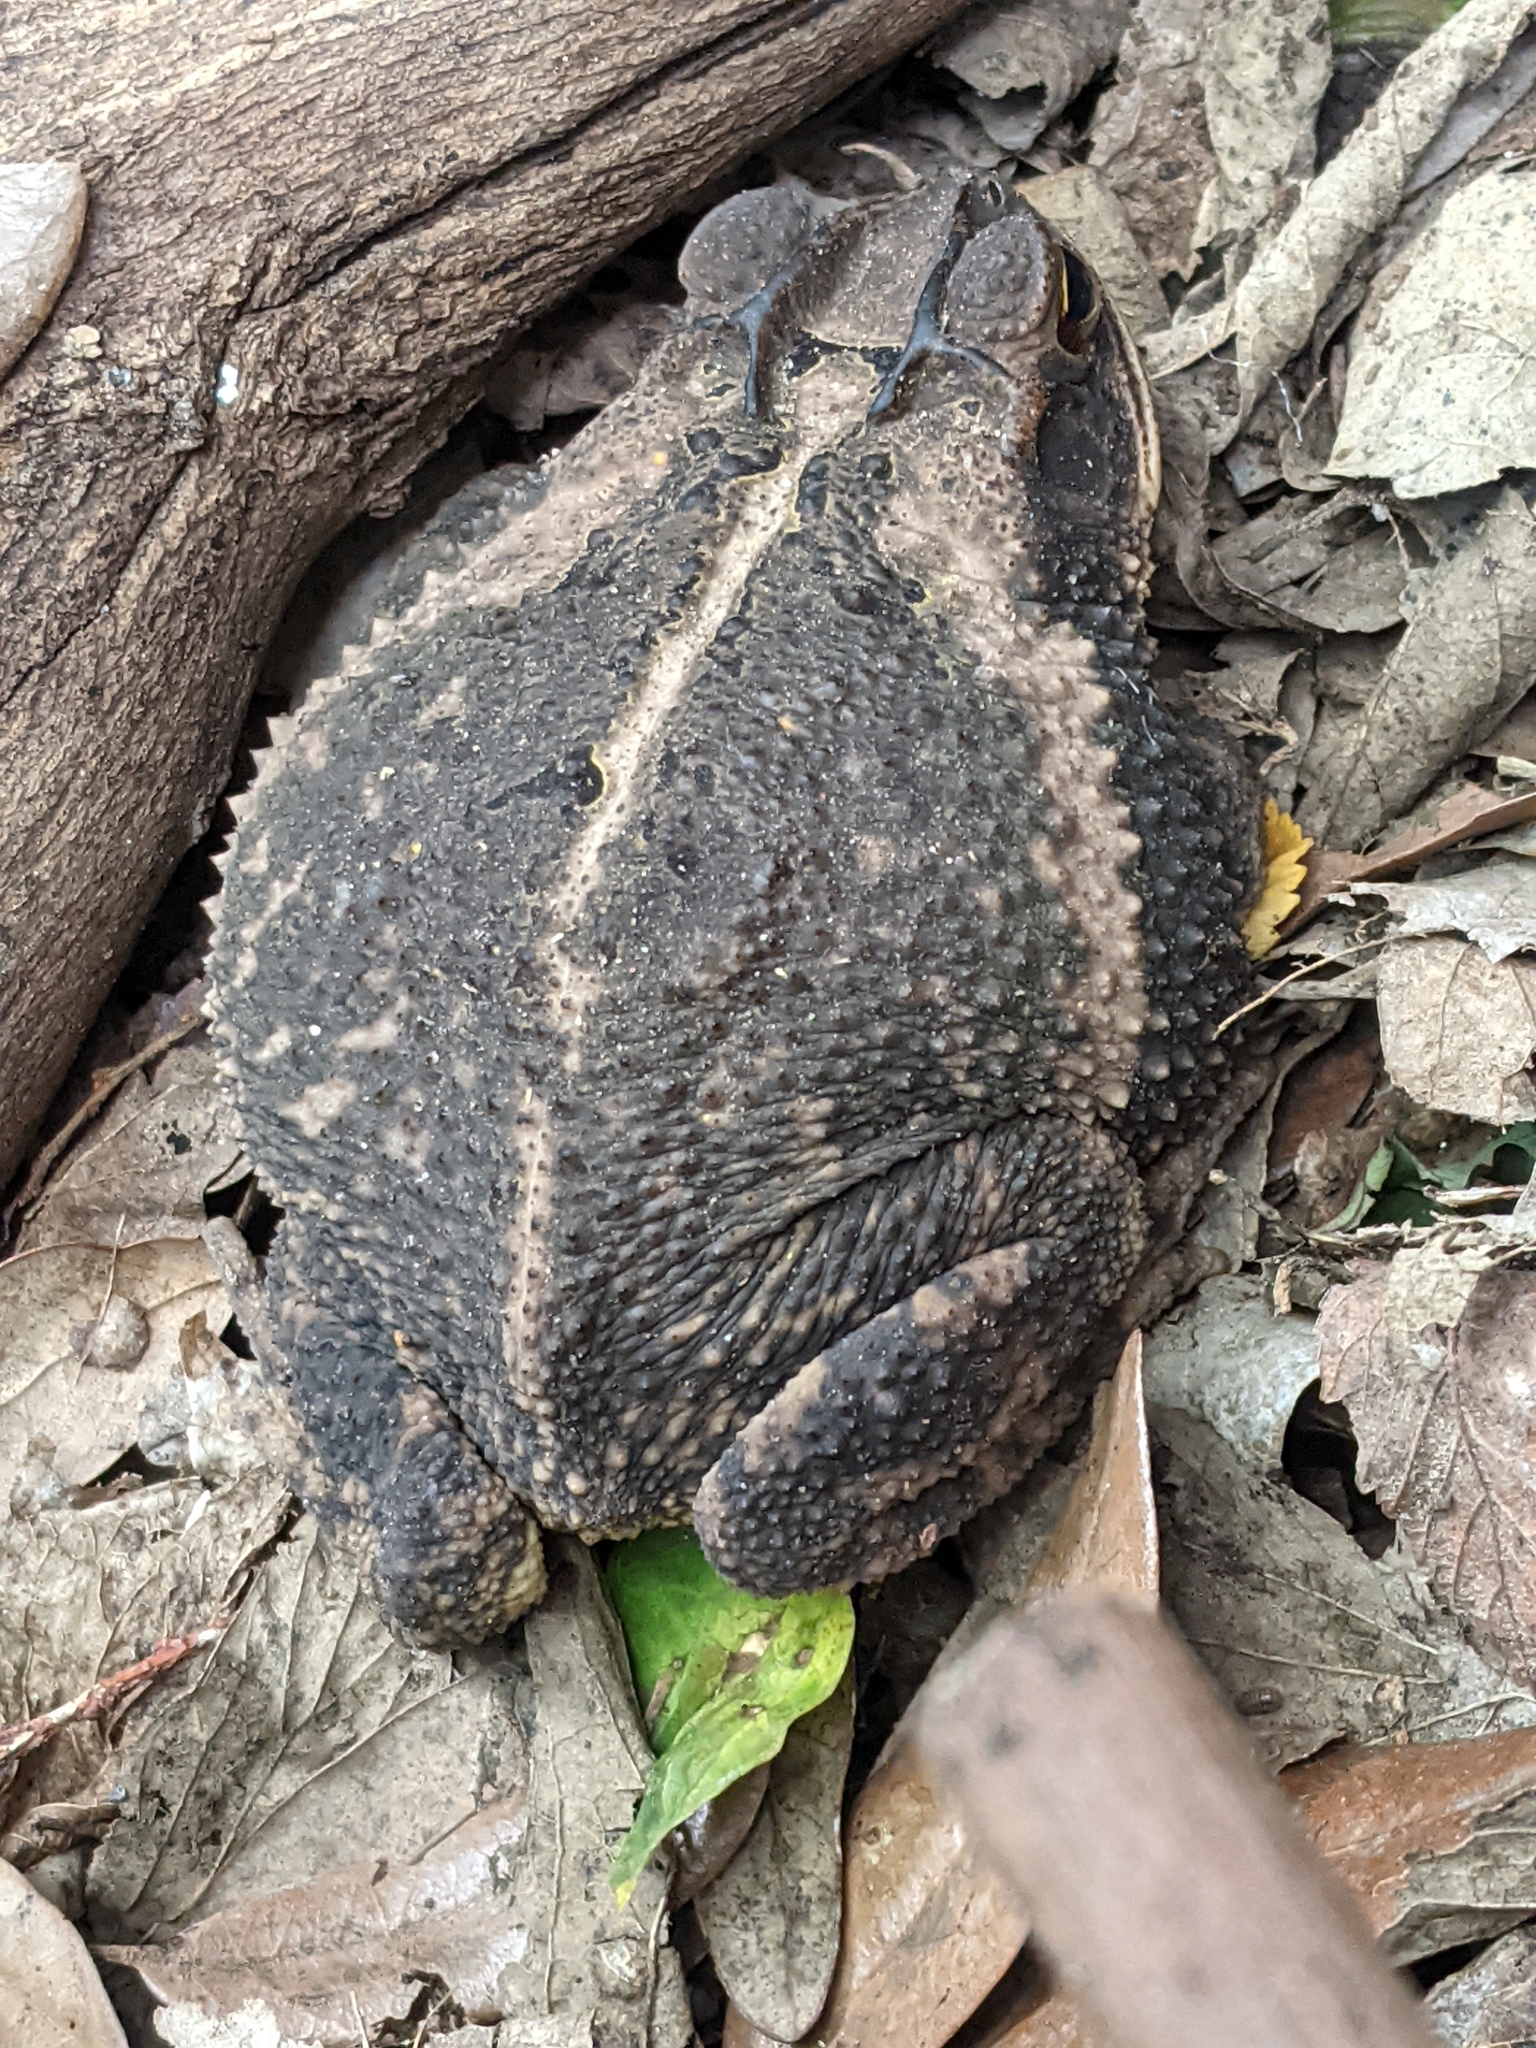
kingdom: Animalia
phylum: Chordata
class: Amphibia
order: Anura
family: Bufonidae
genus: Incilius
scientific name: Incilius nebulifer
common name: Gulf coast toad
